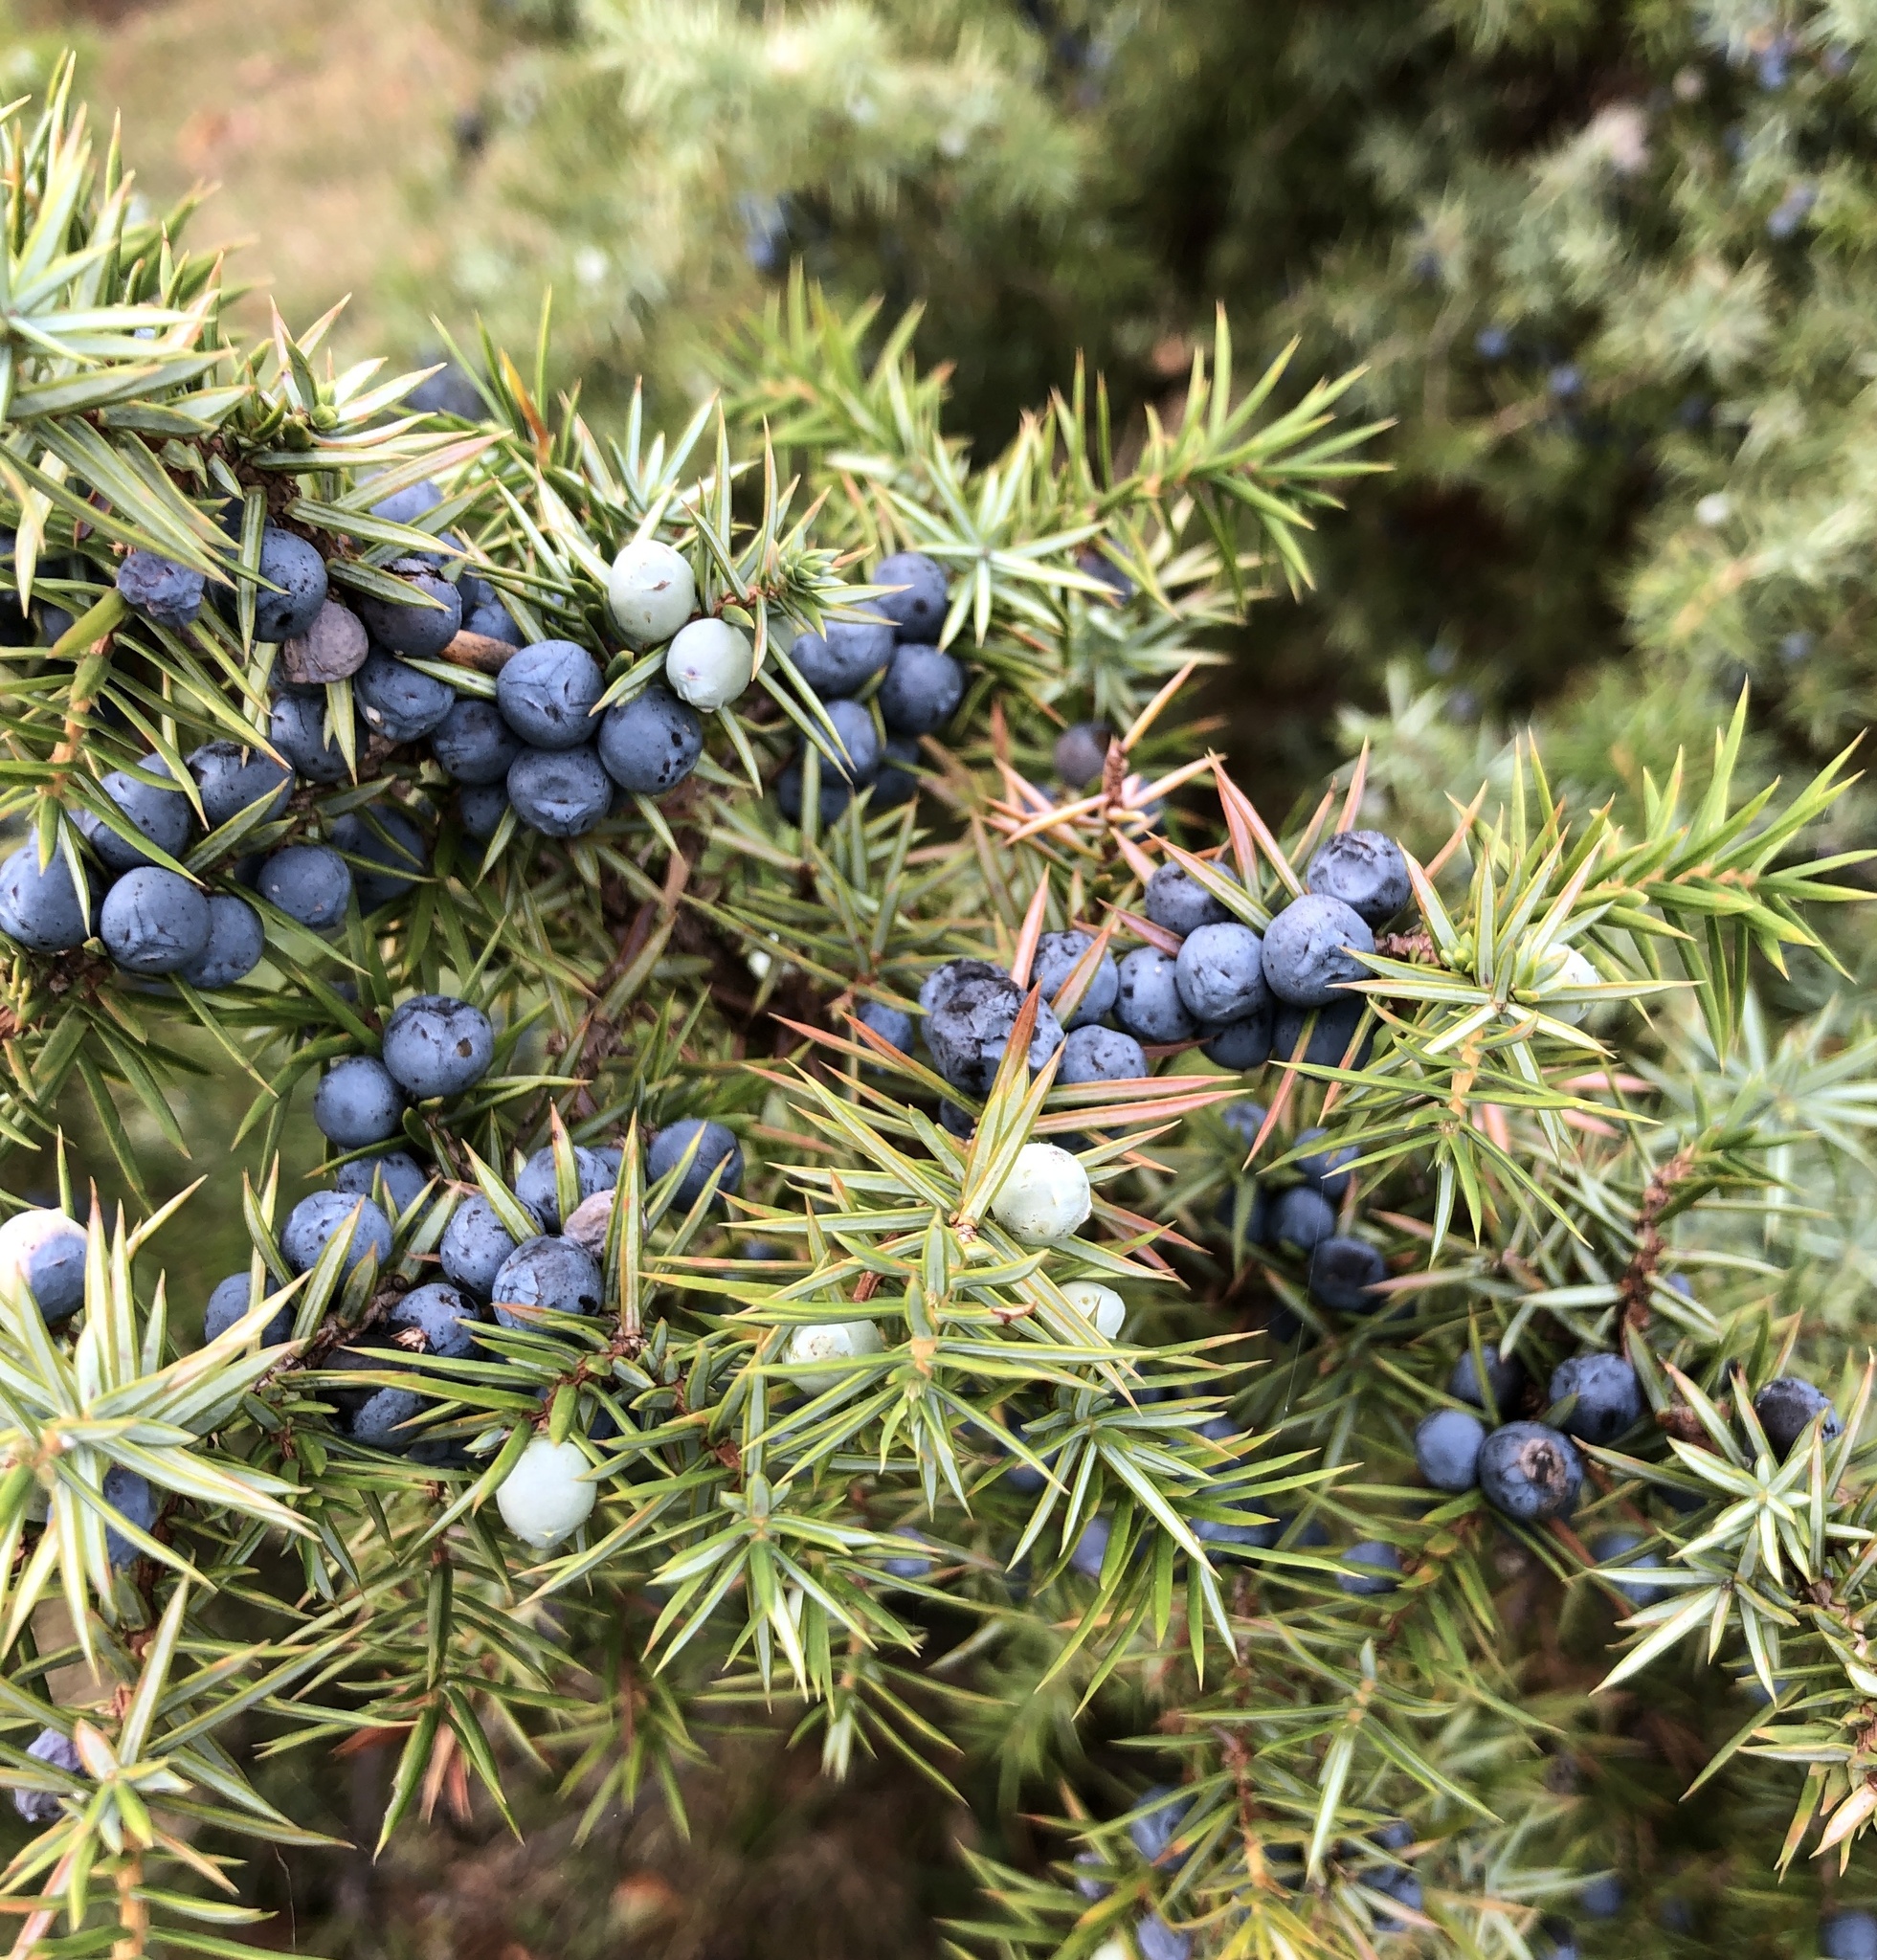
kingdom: Plantae
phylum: Tracheophyta
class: Pinopsida
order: Pinales
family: Cupressaceae
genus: Juniperus
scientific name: Juniperus communis
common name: Common juniper
